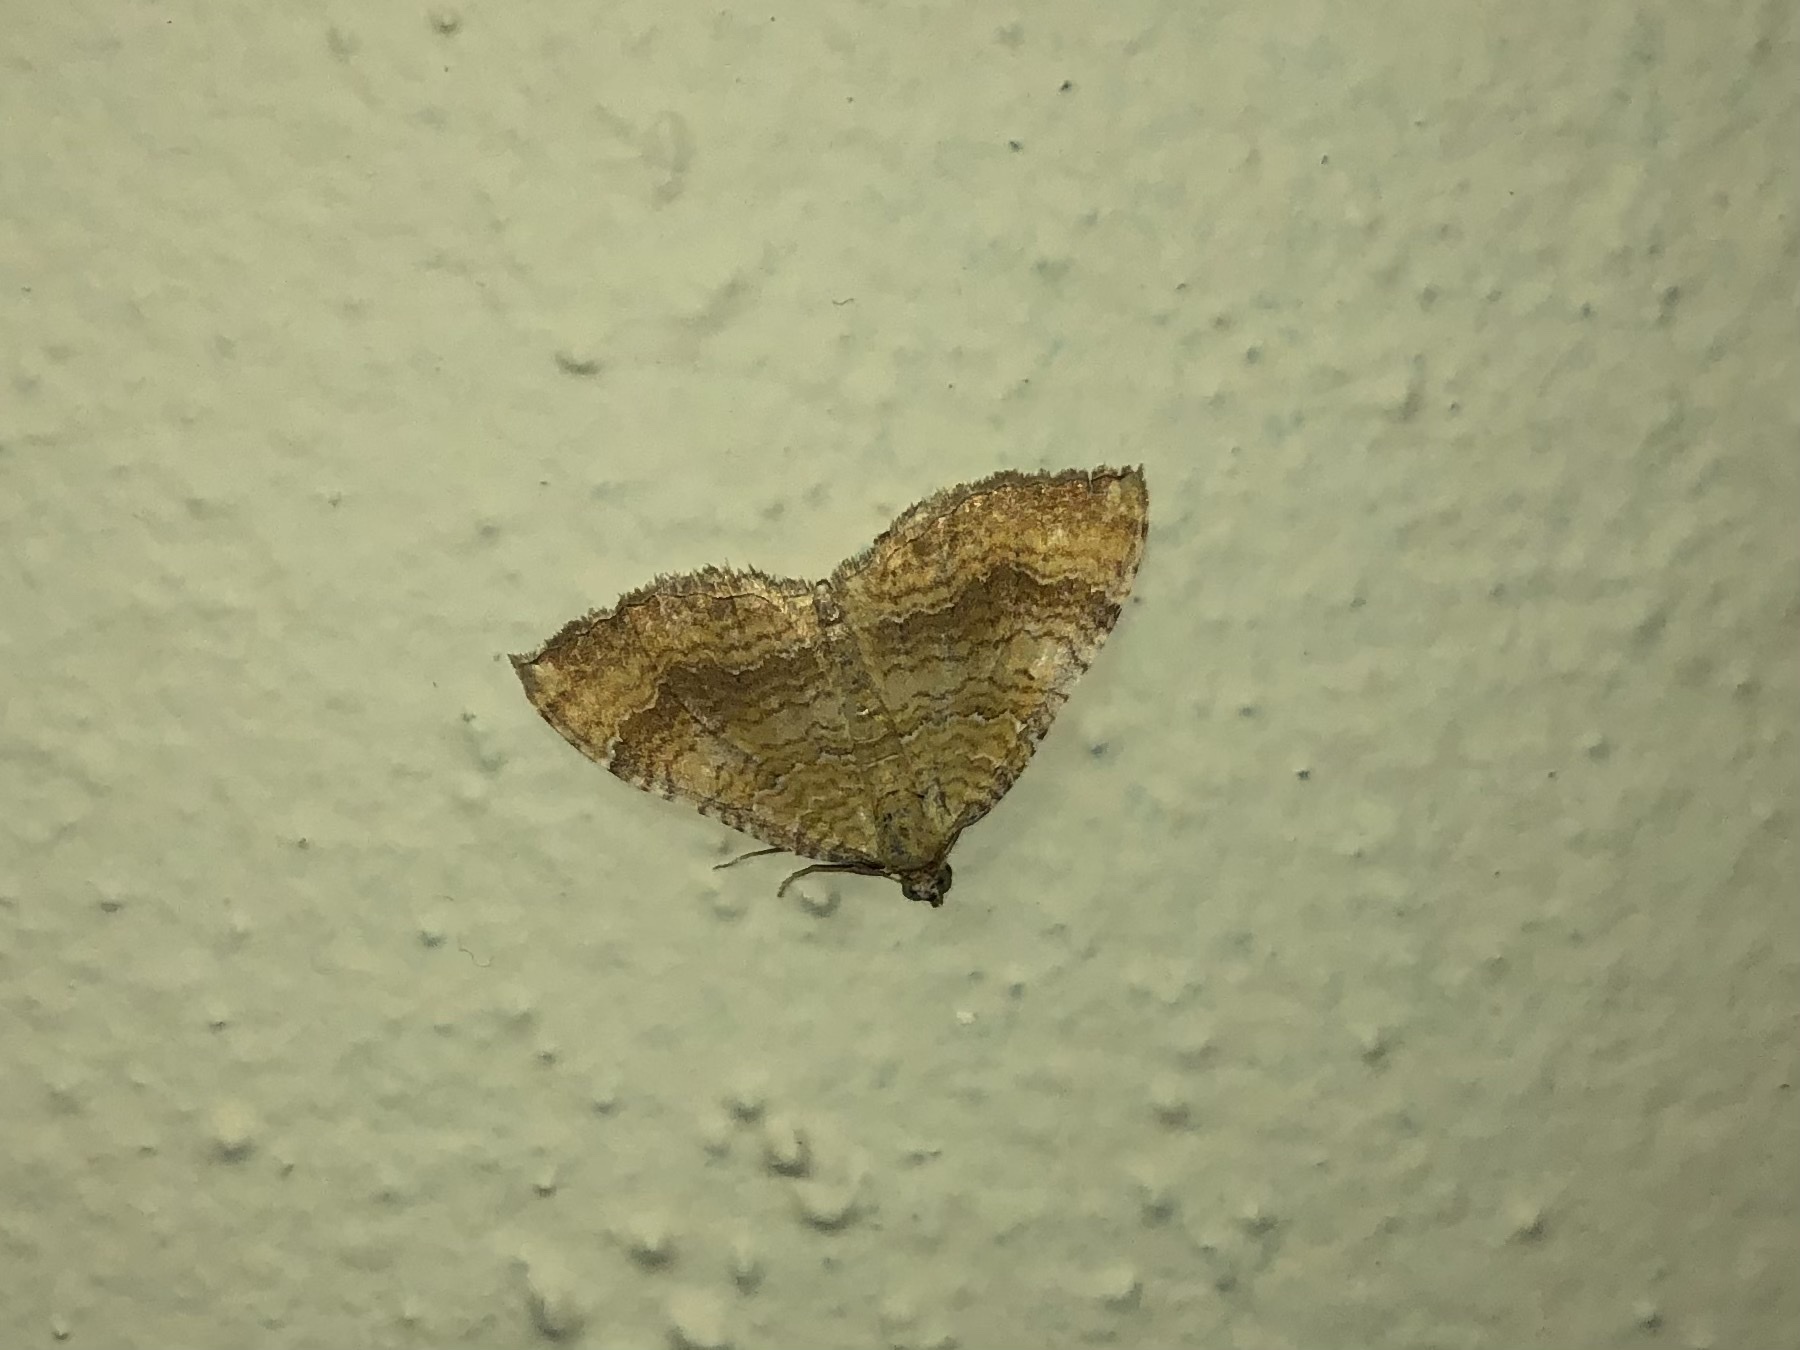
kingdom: Animalia
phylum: Arthropoda
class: Insecta
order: Lepidoptera
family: Geometridae
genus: Camptogramma
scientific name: Camptogramma bilineata
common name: Yellow shell
